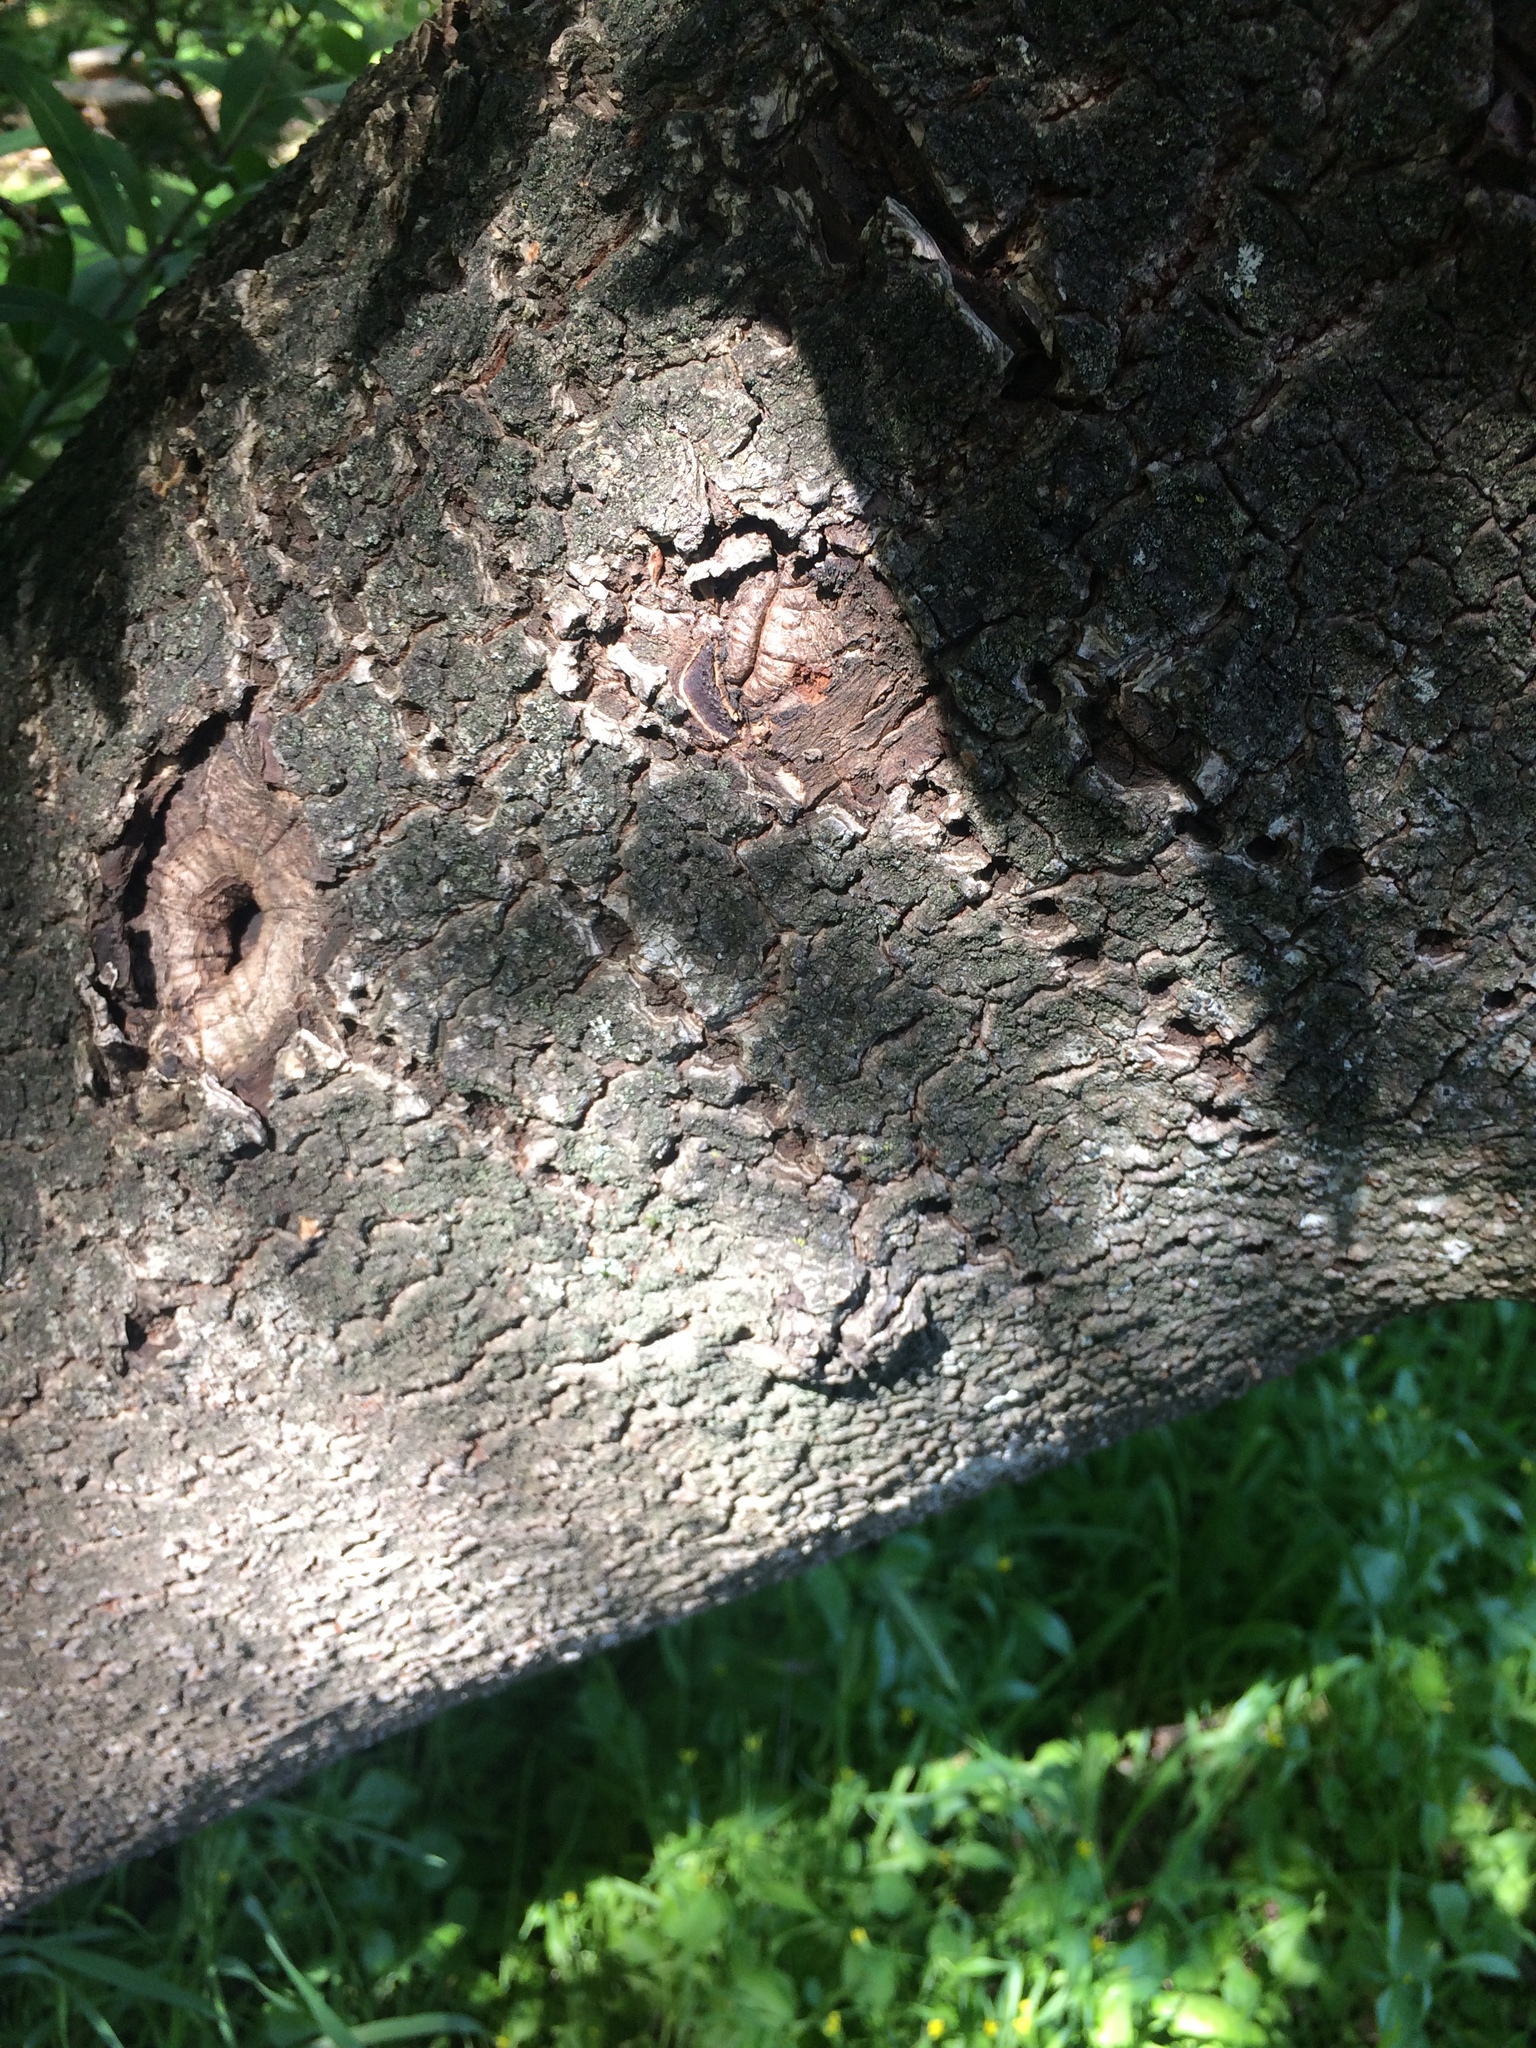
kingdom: Animalia
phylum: Chordata
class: Aves
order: Piciformes
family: Picidae
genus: Sphyrapicus
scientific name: Sphyrapicus
